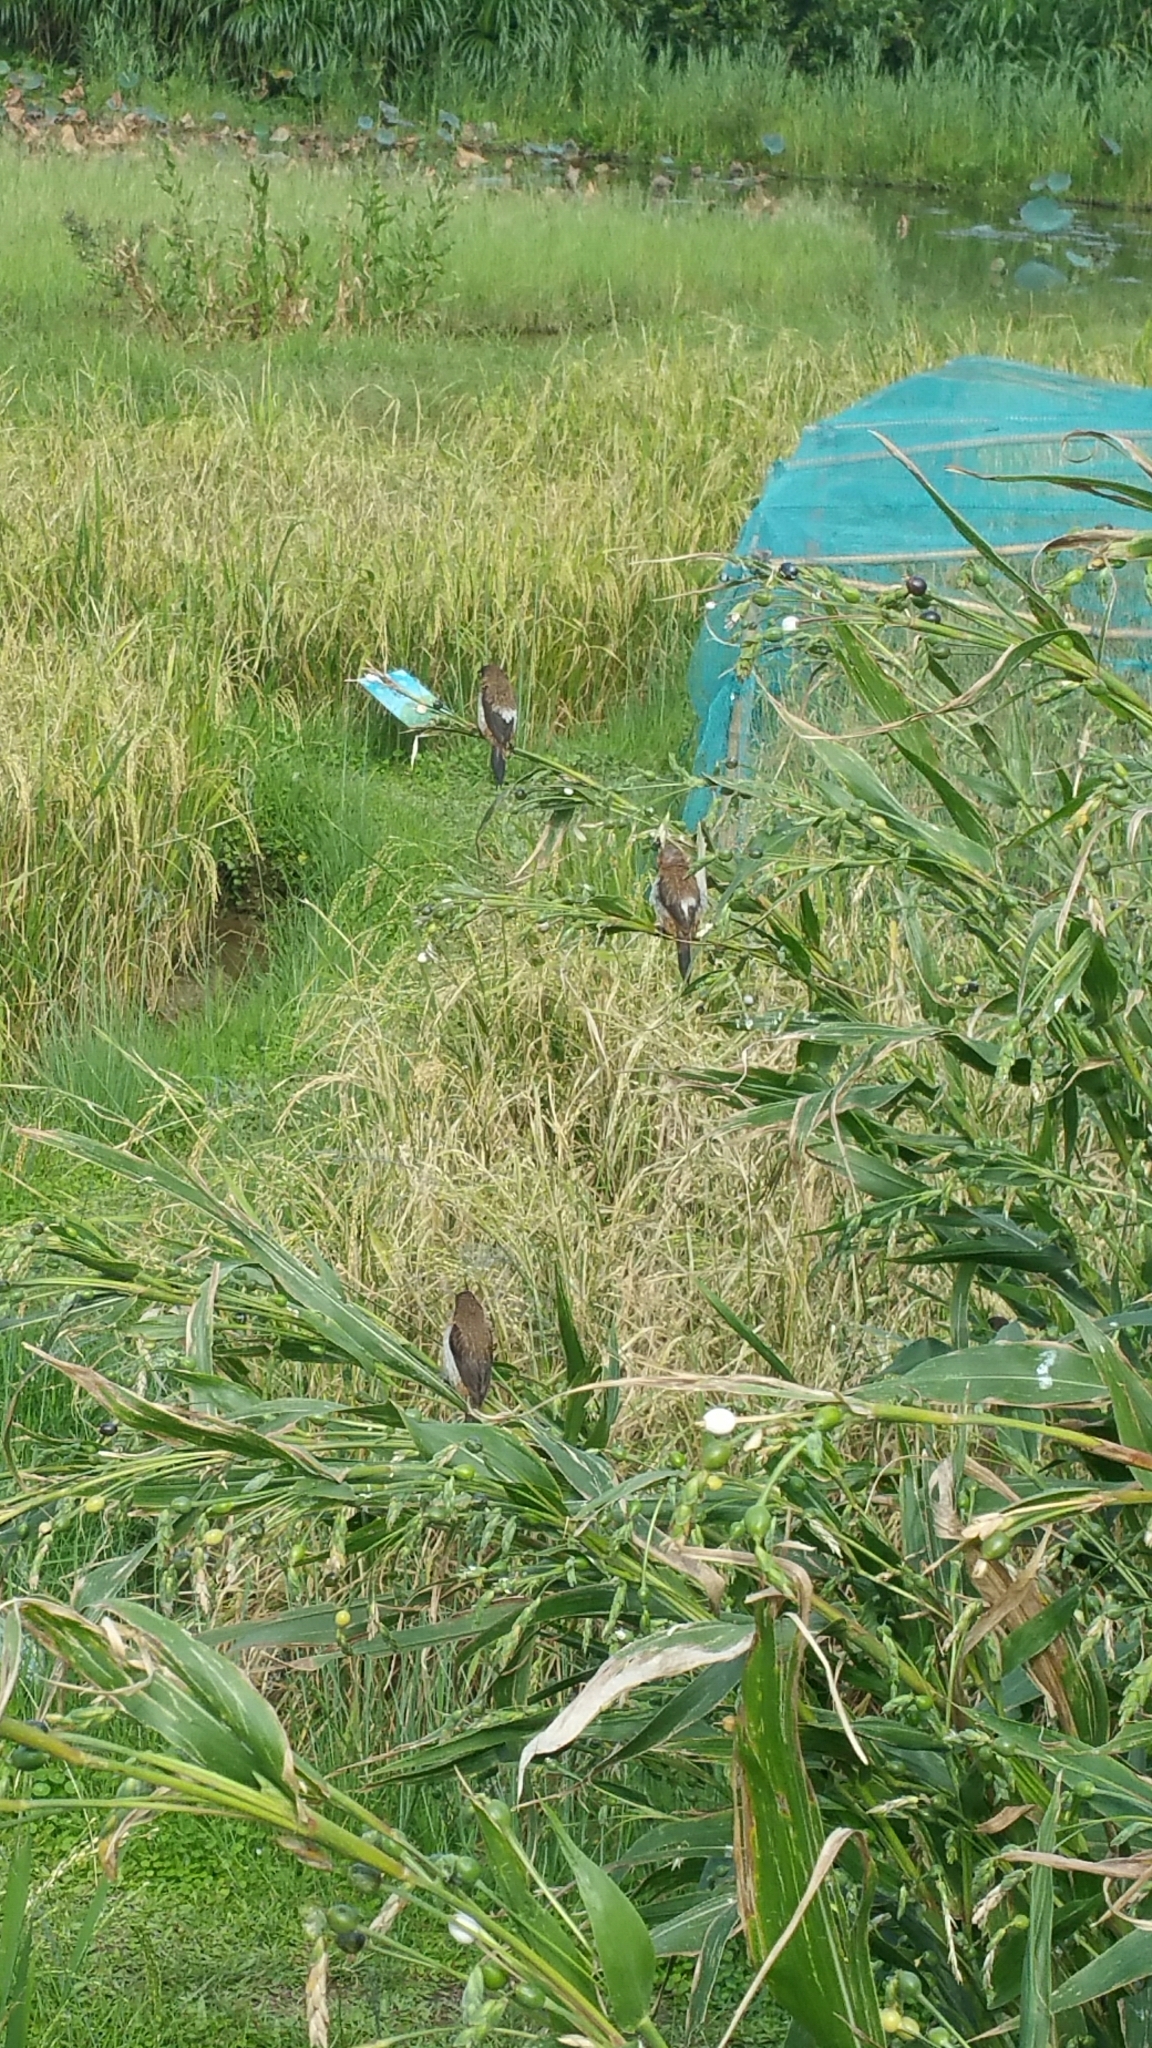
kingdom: Animalia
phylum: Chordata
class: Aves
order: Passeriformes
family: Estrildidae
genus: Lonchura
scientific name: Lonchura striata
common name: White-rumped munia
